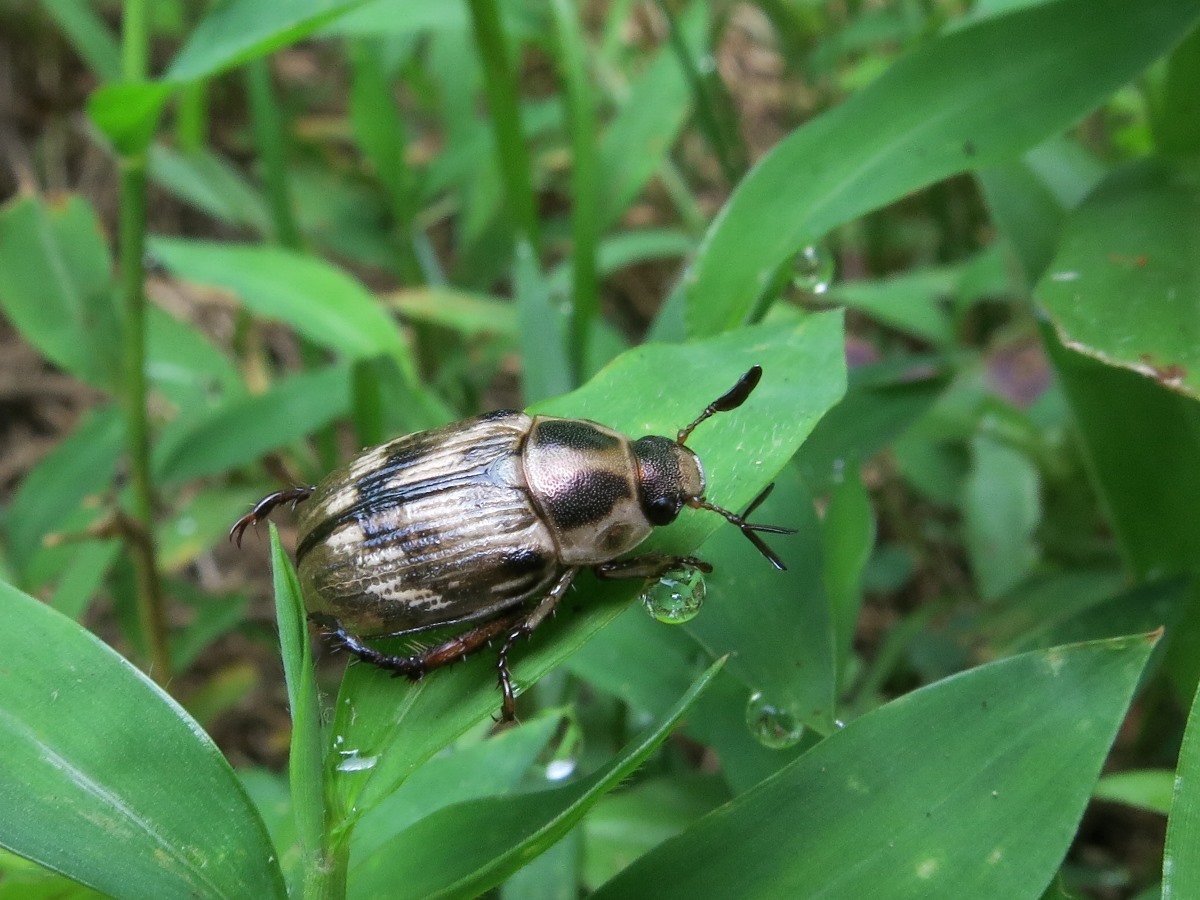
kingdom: Animalia
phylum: Arthropoda
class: Insecta
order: Coleoptera
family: Scarabaeidae
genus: Exomala
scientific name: Exomala orientalis
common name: Oriental beetle
